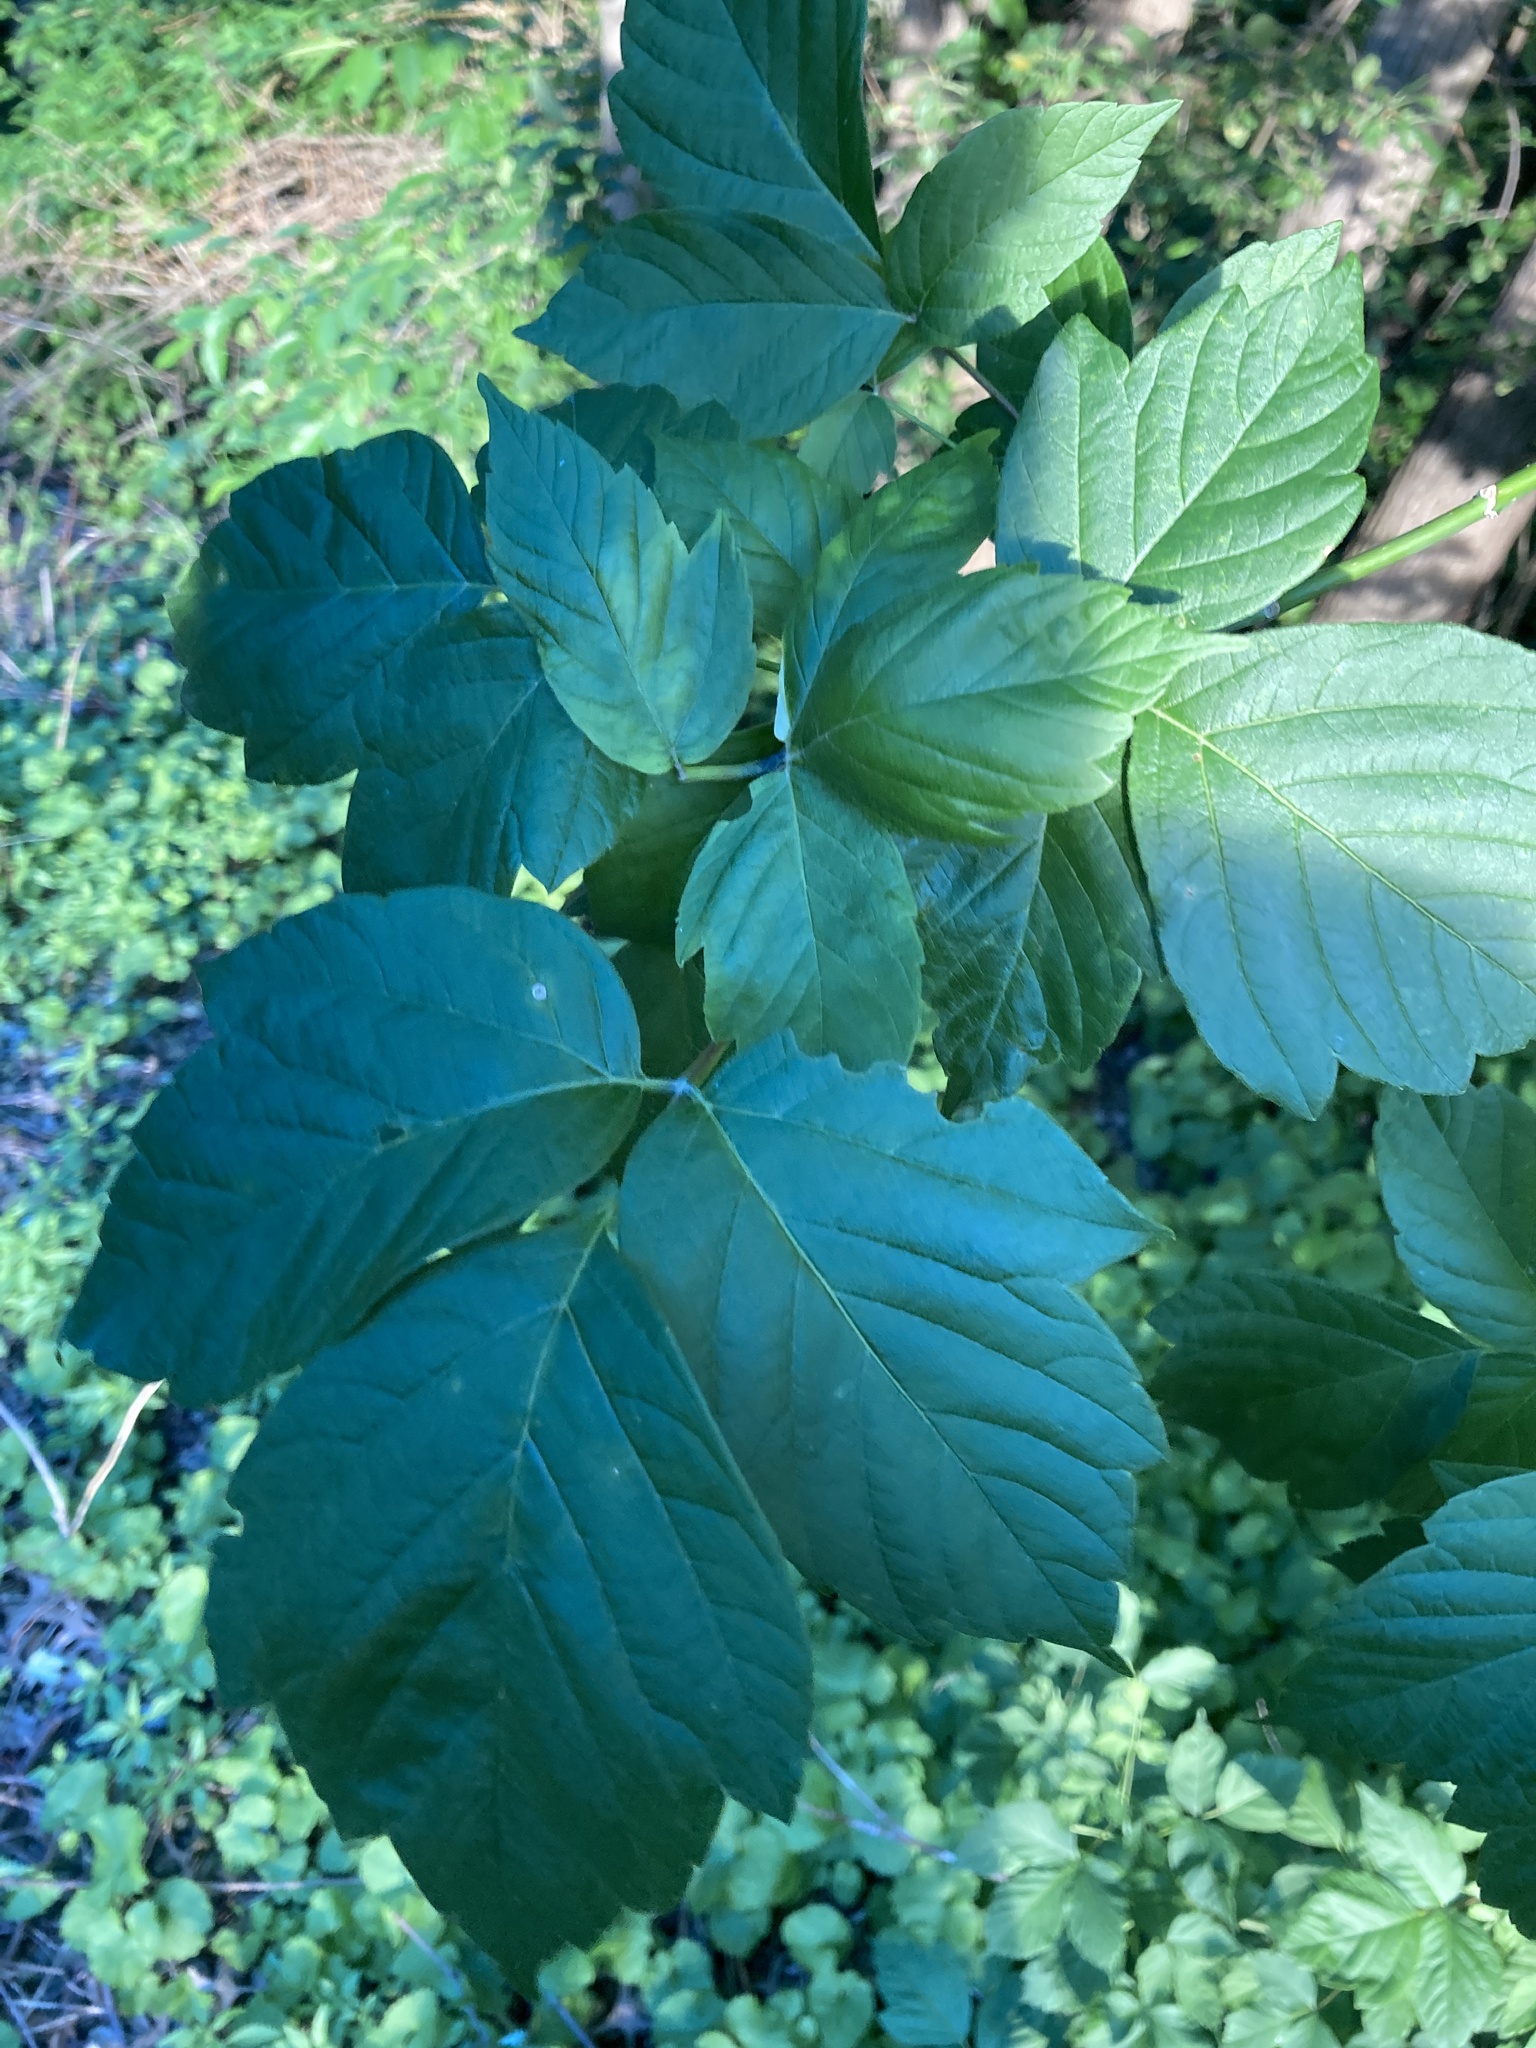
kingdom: Plantae
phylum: Tracheophyta
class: Magnoliopsida
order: Sapindales
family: Sapindaceae
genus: Acer
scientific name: Acer negundo
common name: Ashleaf maple
